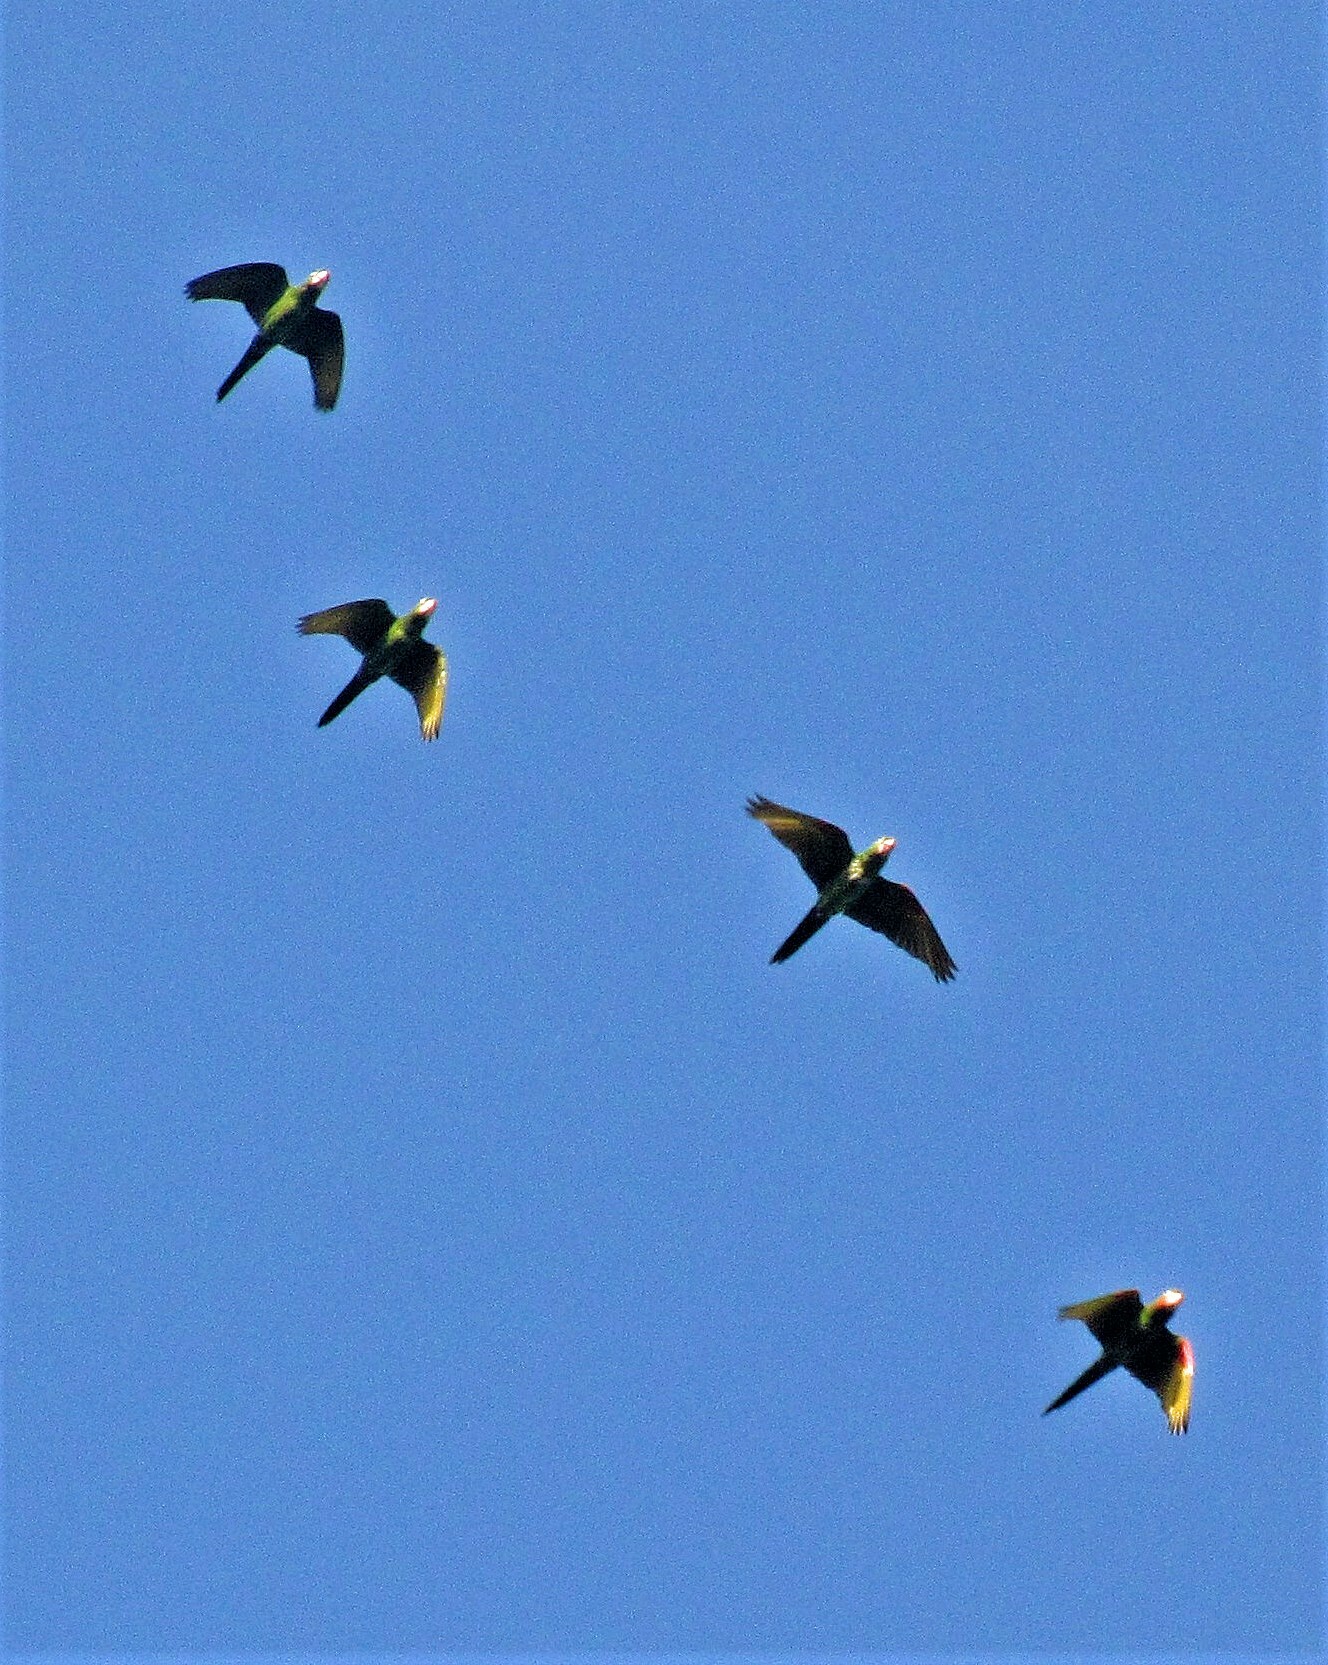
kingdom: Animalia
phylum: Chordata
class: Aves
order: Psittaciformes
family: Psittacidae
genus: Aratinga
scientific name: Aratinga leucophthalma
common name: White-eyed parakeet
